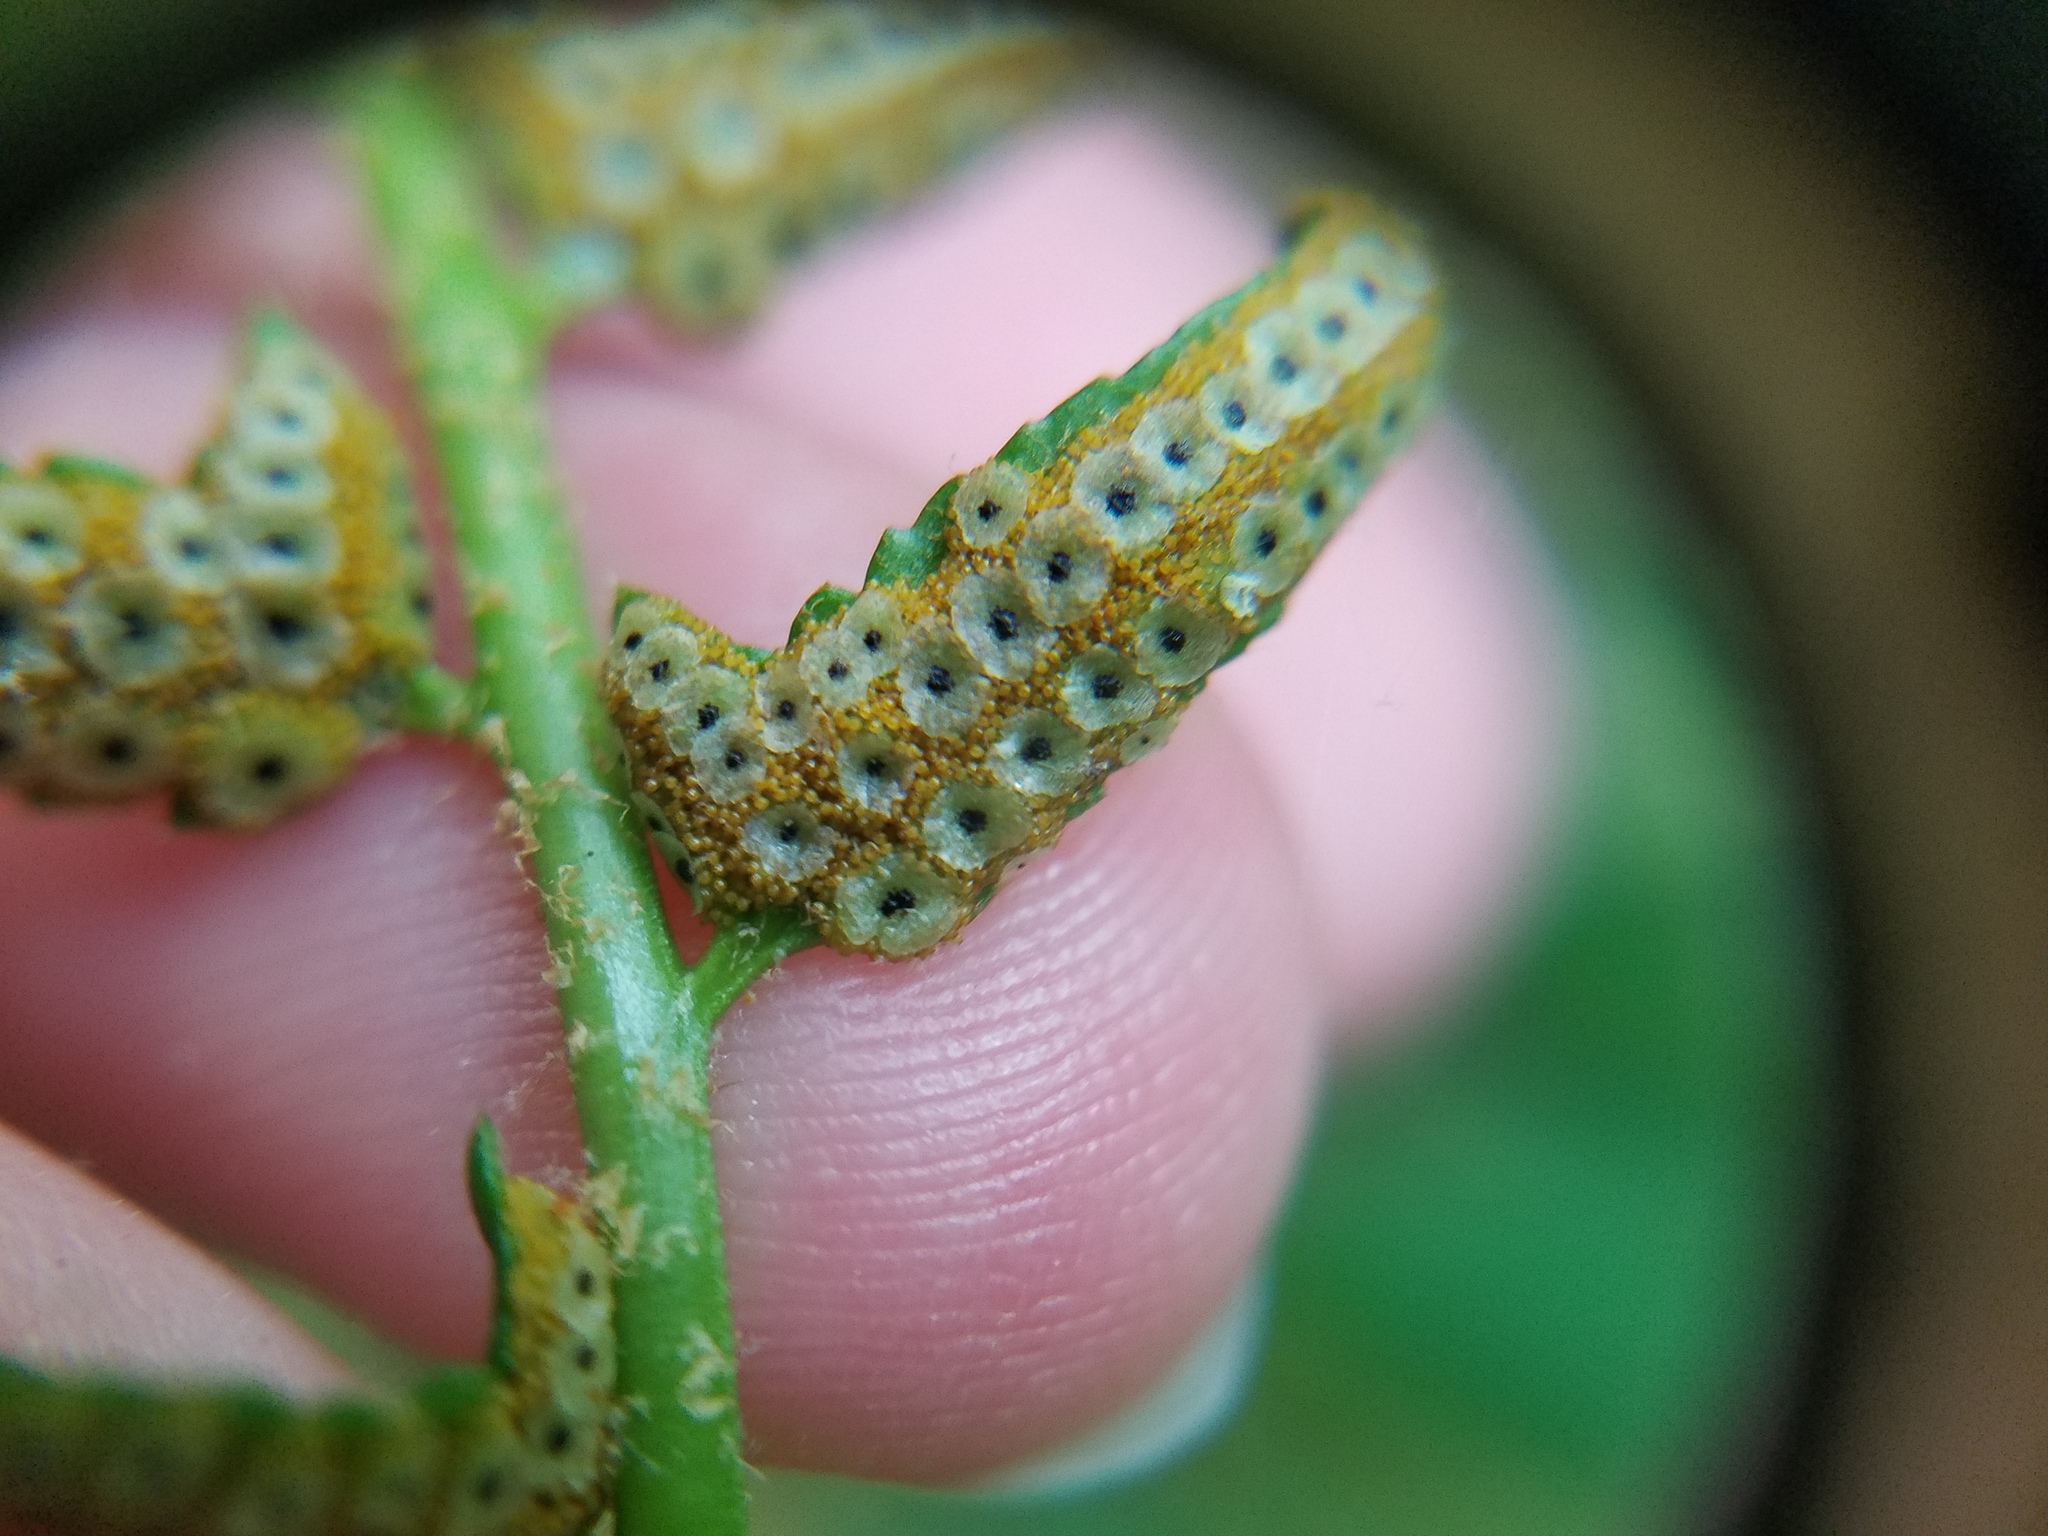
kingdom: Plantae
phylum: Tracheophyta
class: Polypodiopsida
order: Polypodiales
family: Dryopteridaceae
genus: Polystichum
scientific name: Polystichum acrostichoides
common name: Christmas fern
